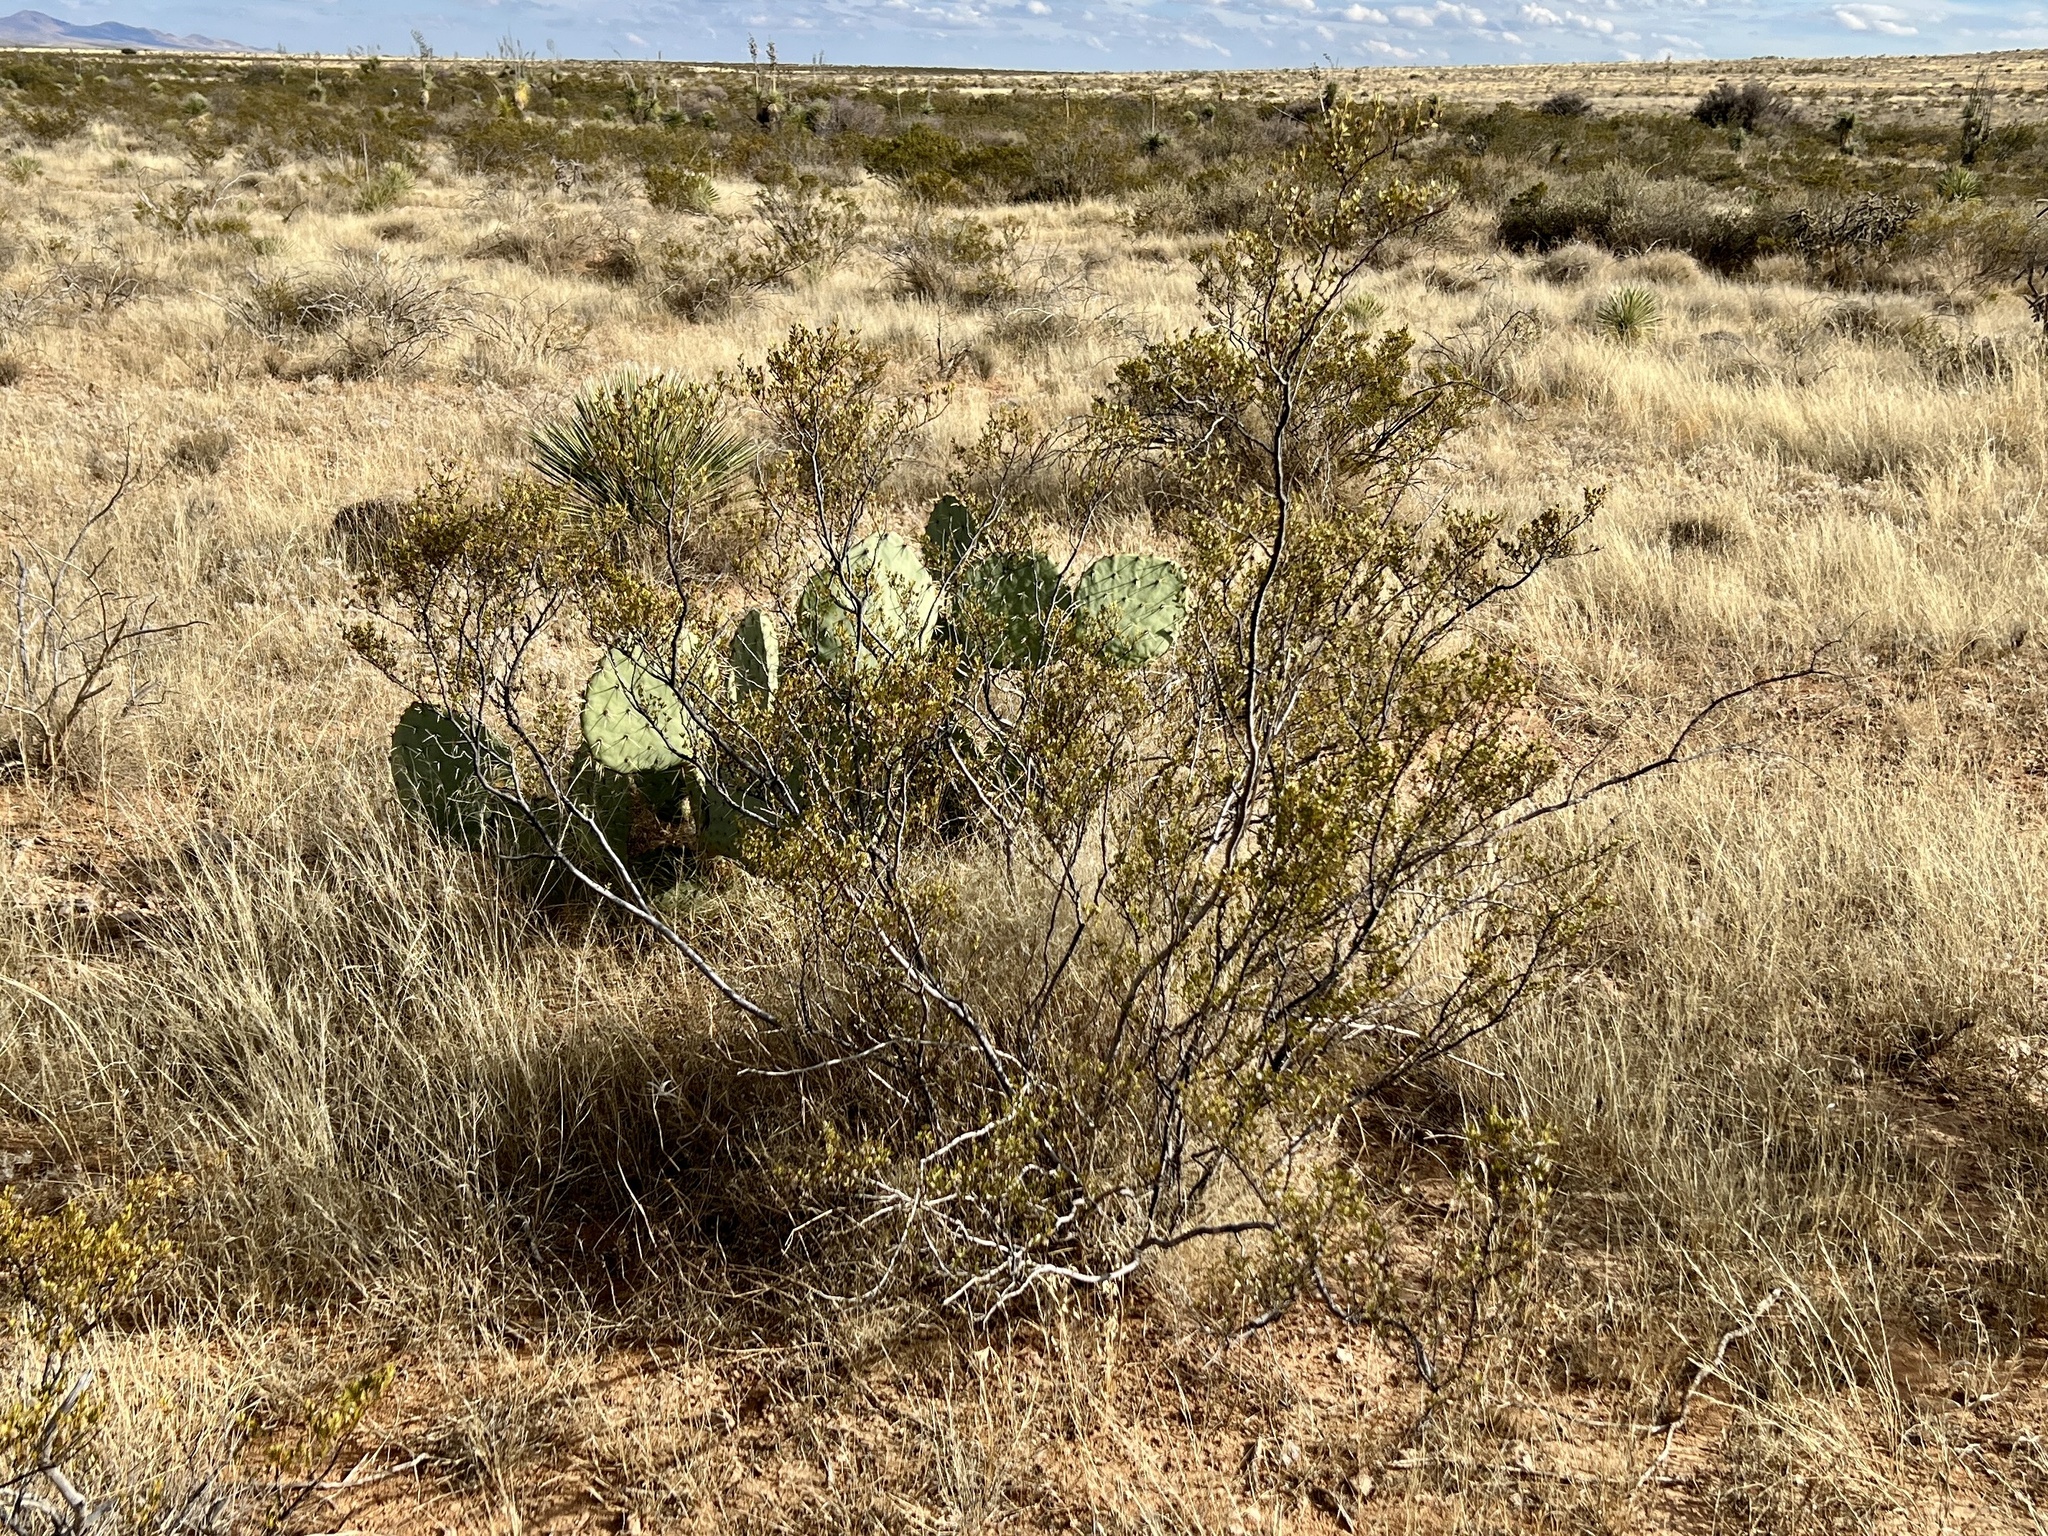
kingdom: Plantae
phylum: Tracheophyta
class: Magnoliopsida
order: Zygophyllales
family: Zygophyllaceae
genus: Larrea
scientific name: Larrea tridentata
